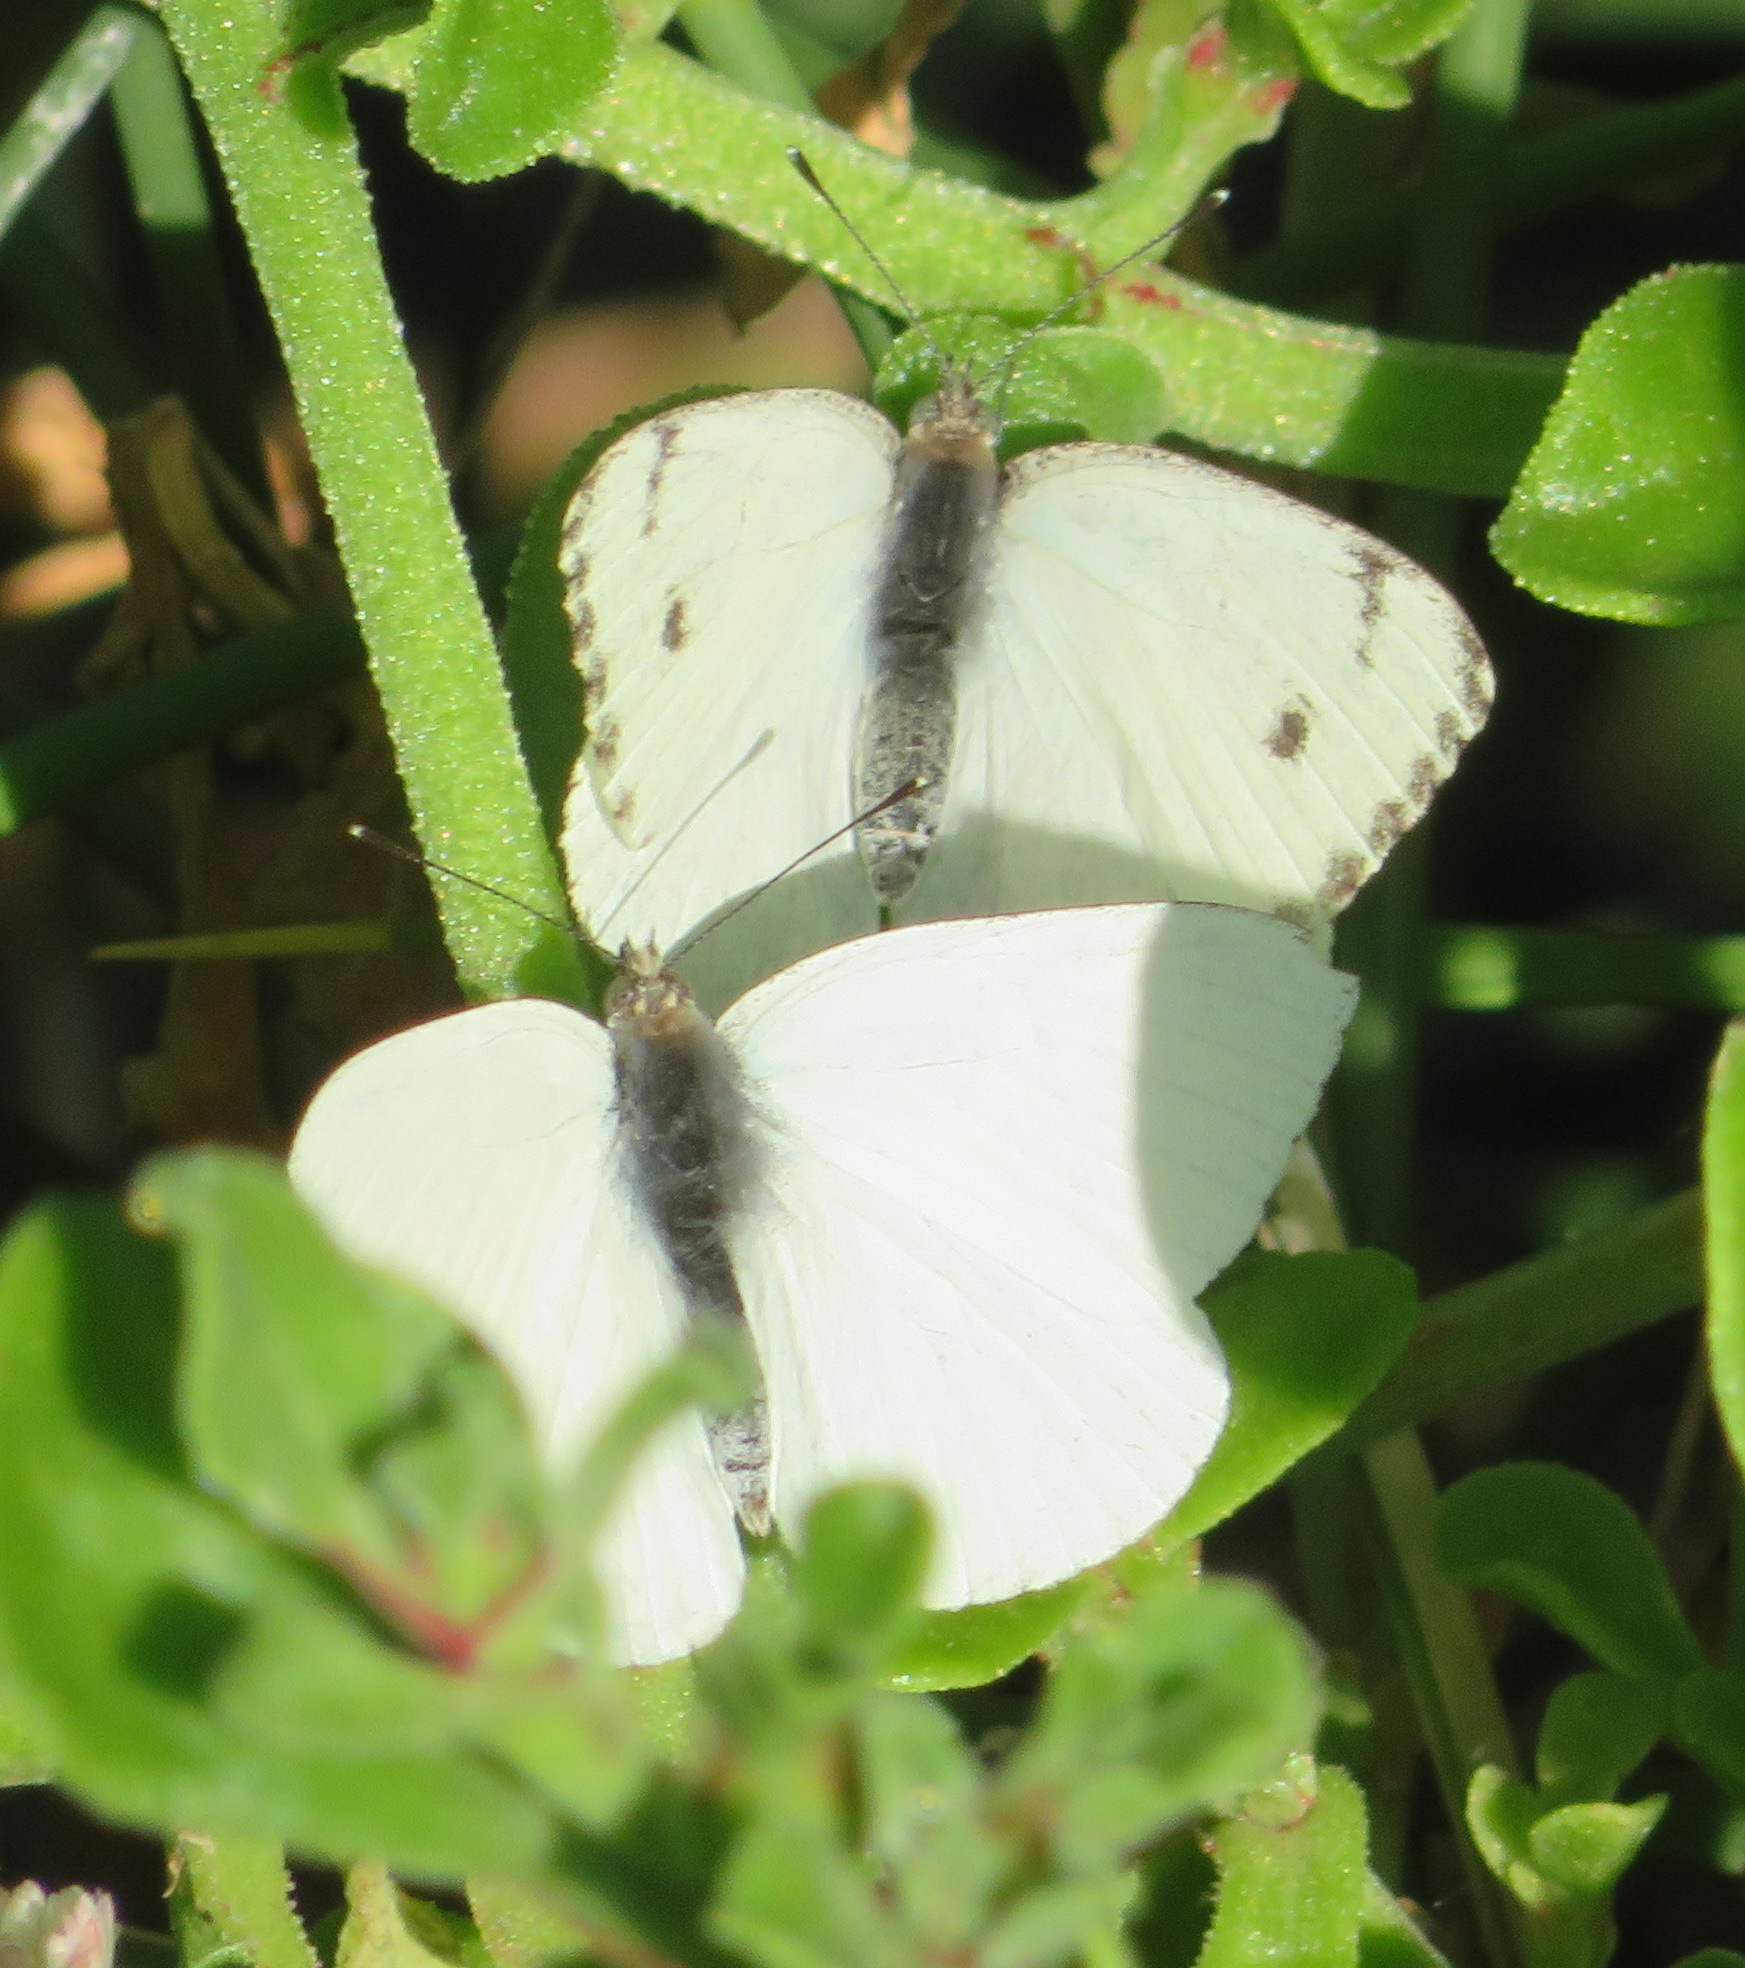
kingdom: Animalia
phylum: Arthropoda
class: Insecta
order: Lepidoptera
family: Pieridae
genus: Dixeia
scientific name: Dixeia charina
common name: African small white
